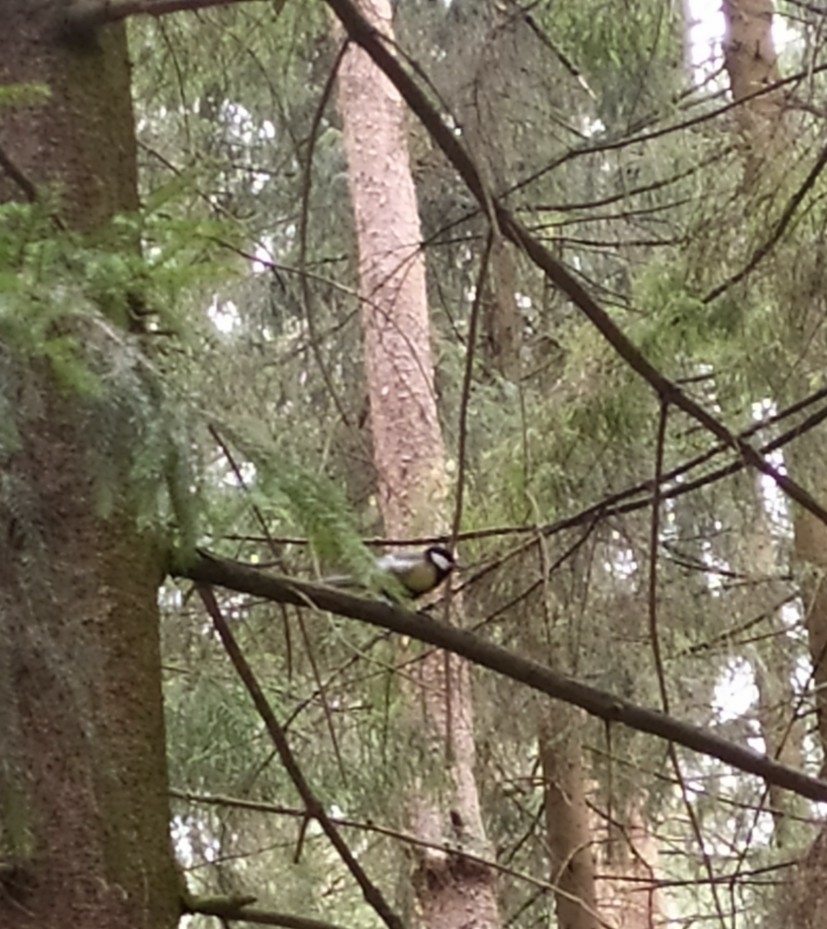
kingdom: Animalia
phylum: Chordata
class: Aves
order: Passeriformes
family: Paridae
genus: Parus
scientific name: Parus major
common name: Great tit
